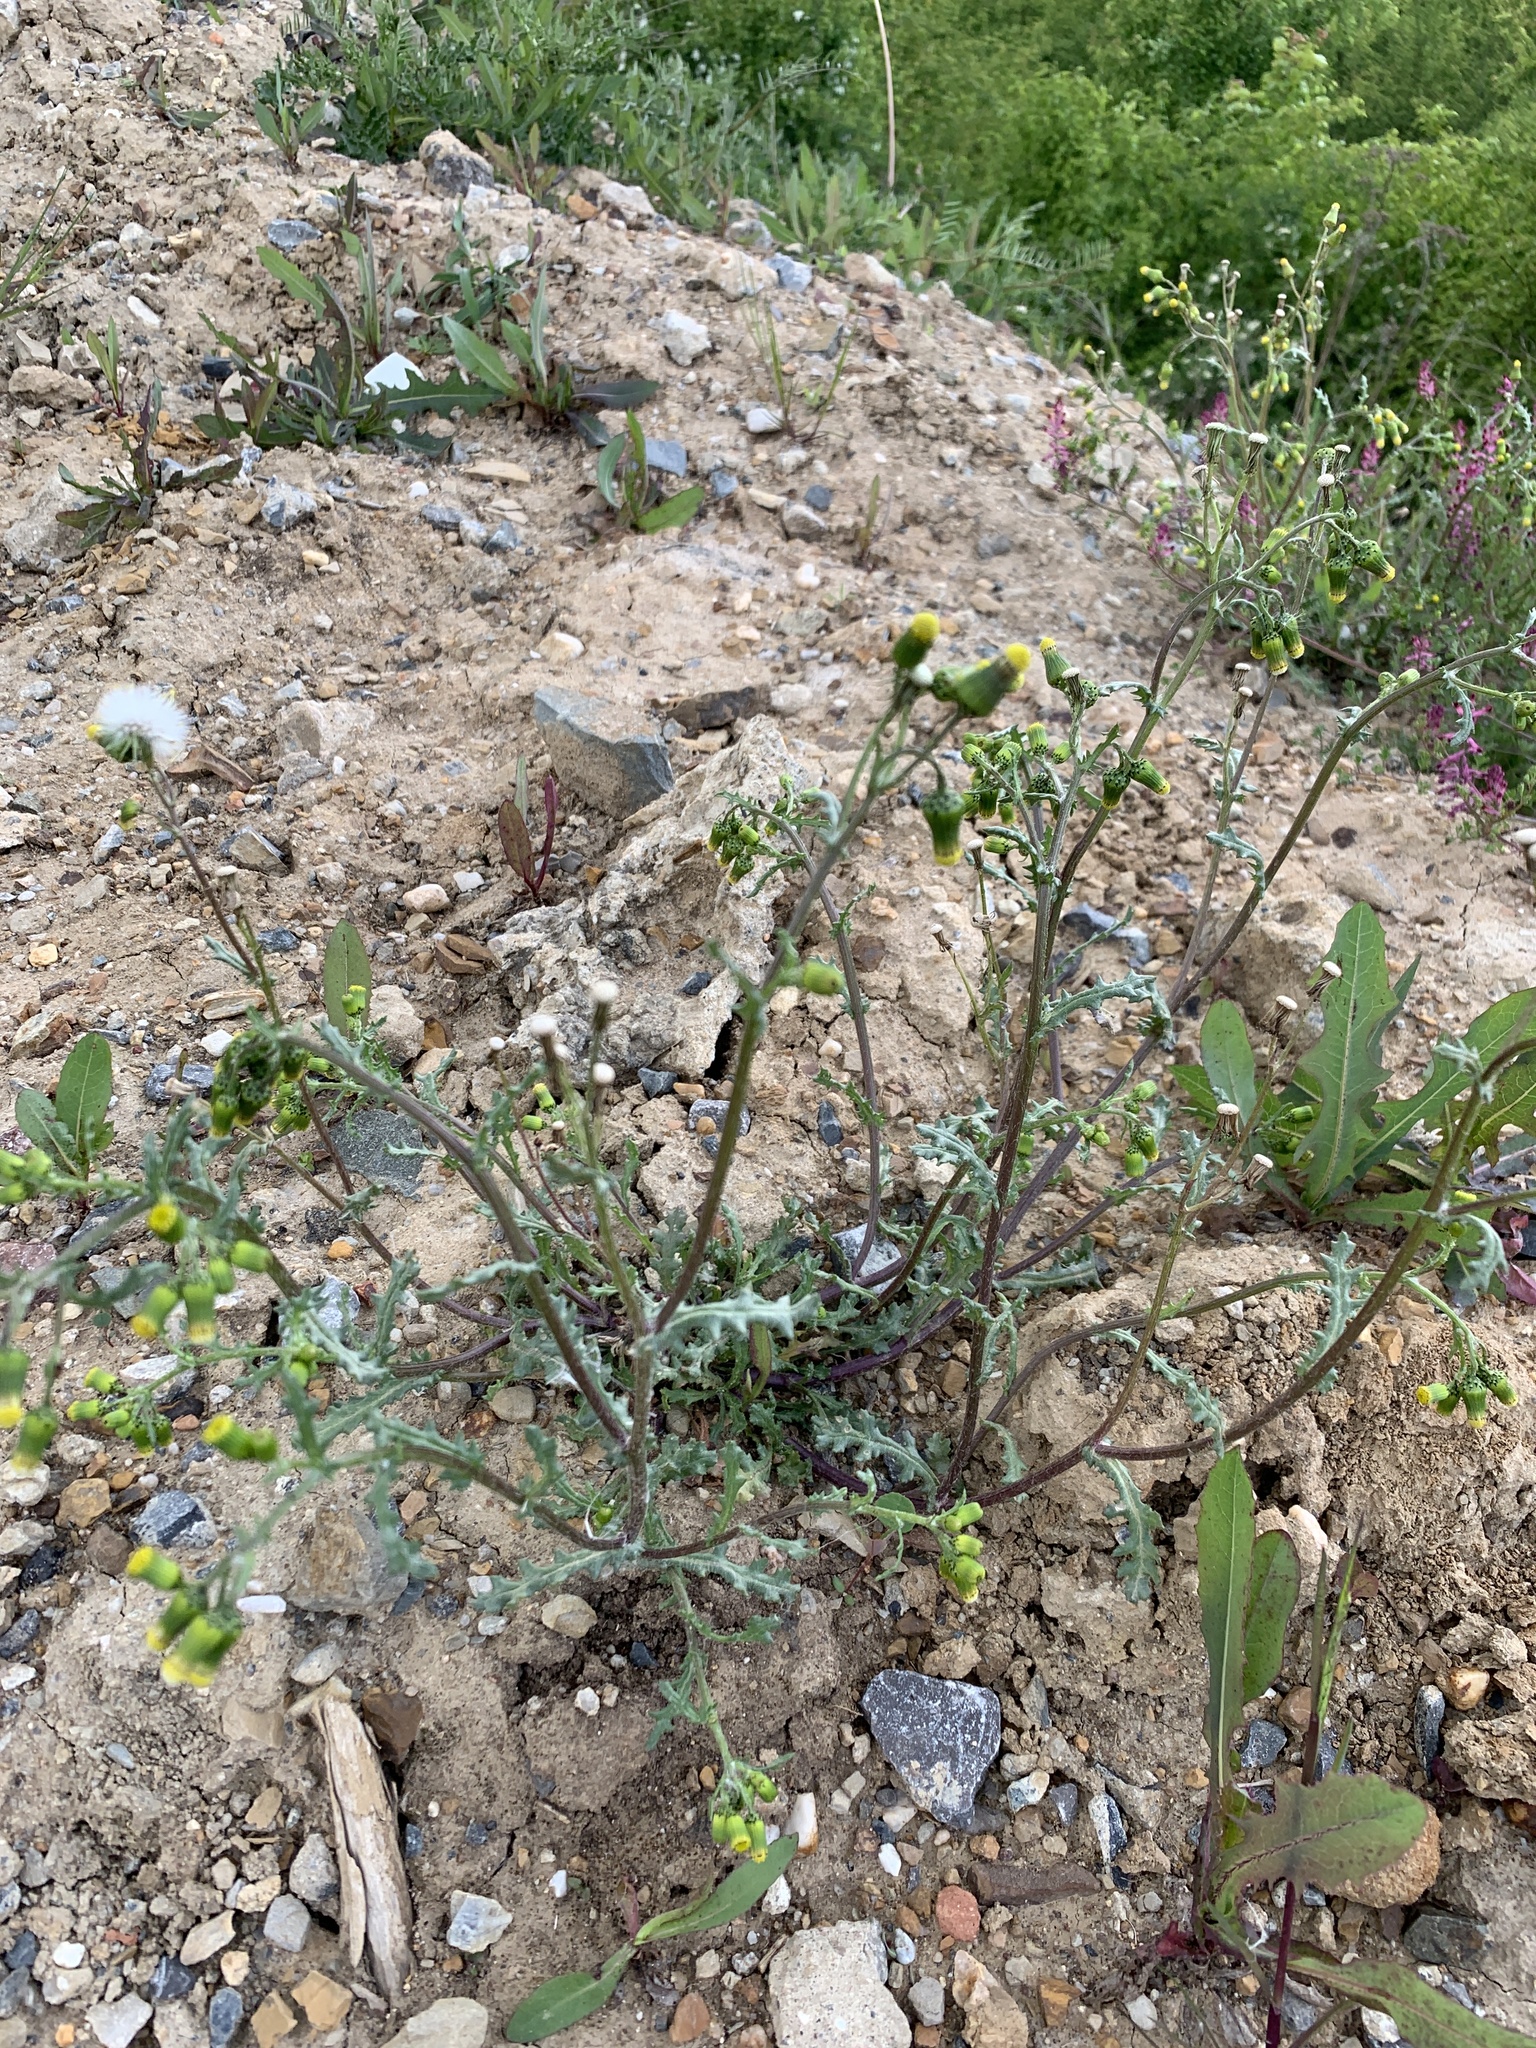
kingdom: Plantae
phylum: Tracheophyta
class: Magnoliopsida
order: Asterales
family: Asteraceae
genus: Senecio
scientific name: Senecio vulgaris
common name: Old-man-in-the-spring
